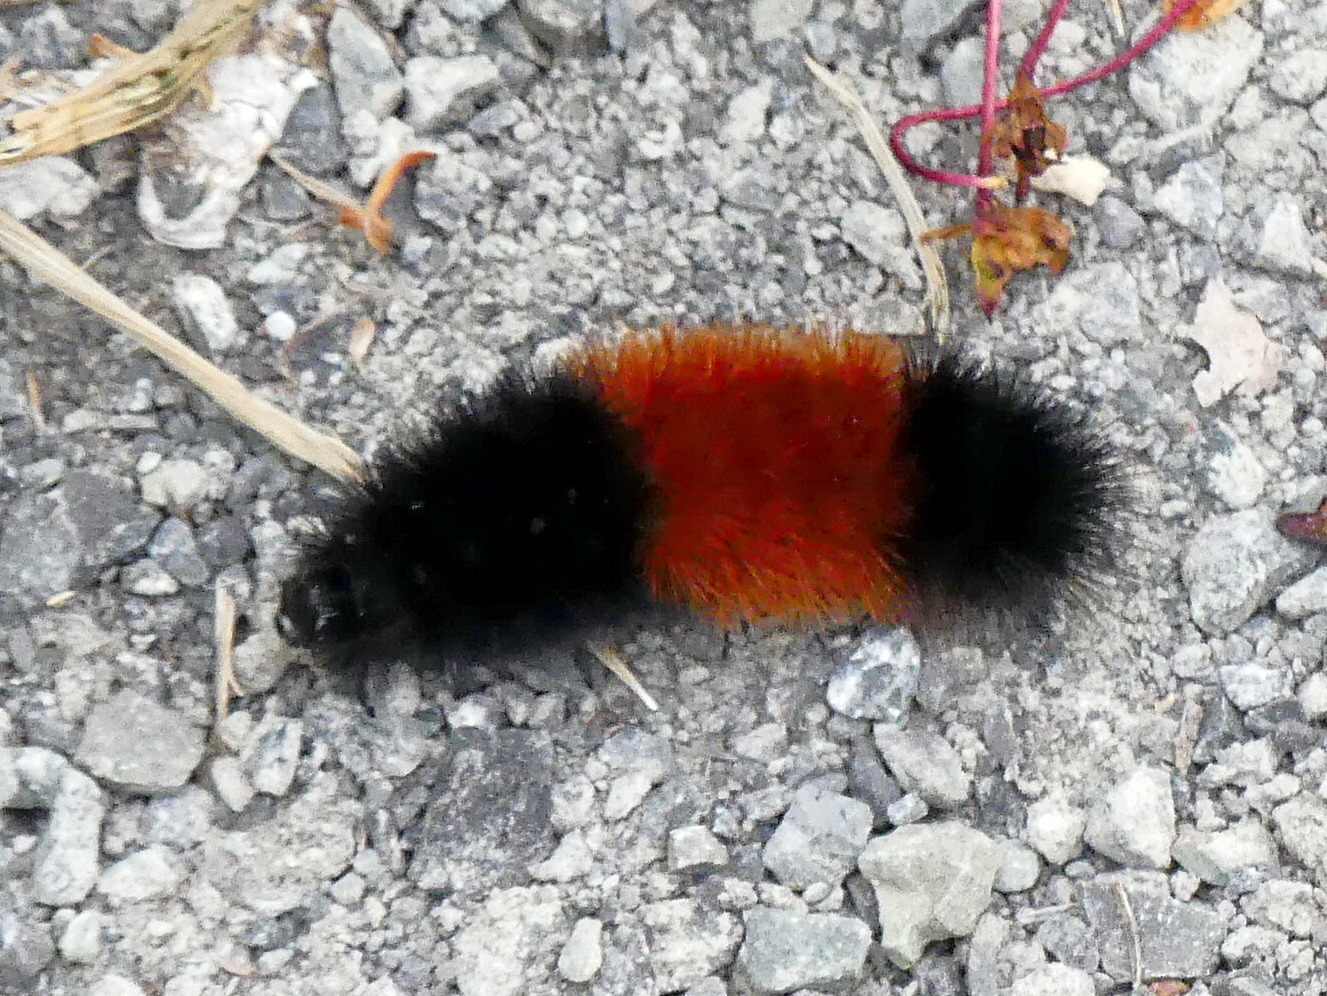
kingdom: Animalia
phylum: Arthropoda
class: Insecta
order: Lepidoptera
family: Erebidae
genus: Pyrrharctia
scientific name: Pyrrharctia isabella
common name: Isabella tiger moth
